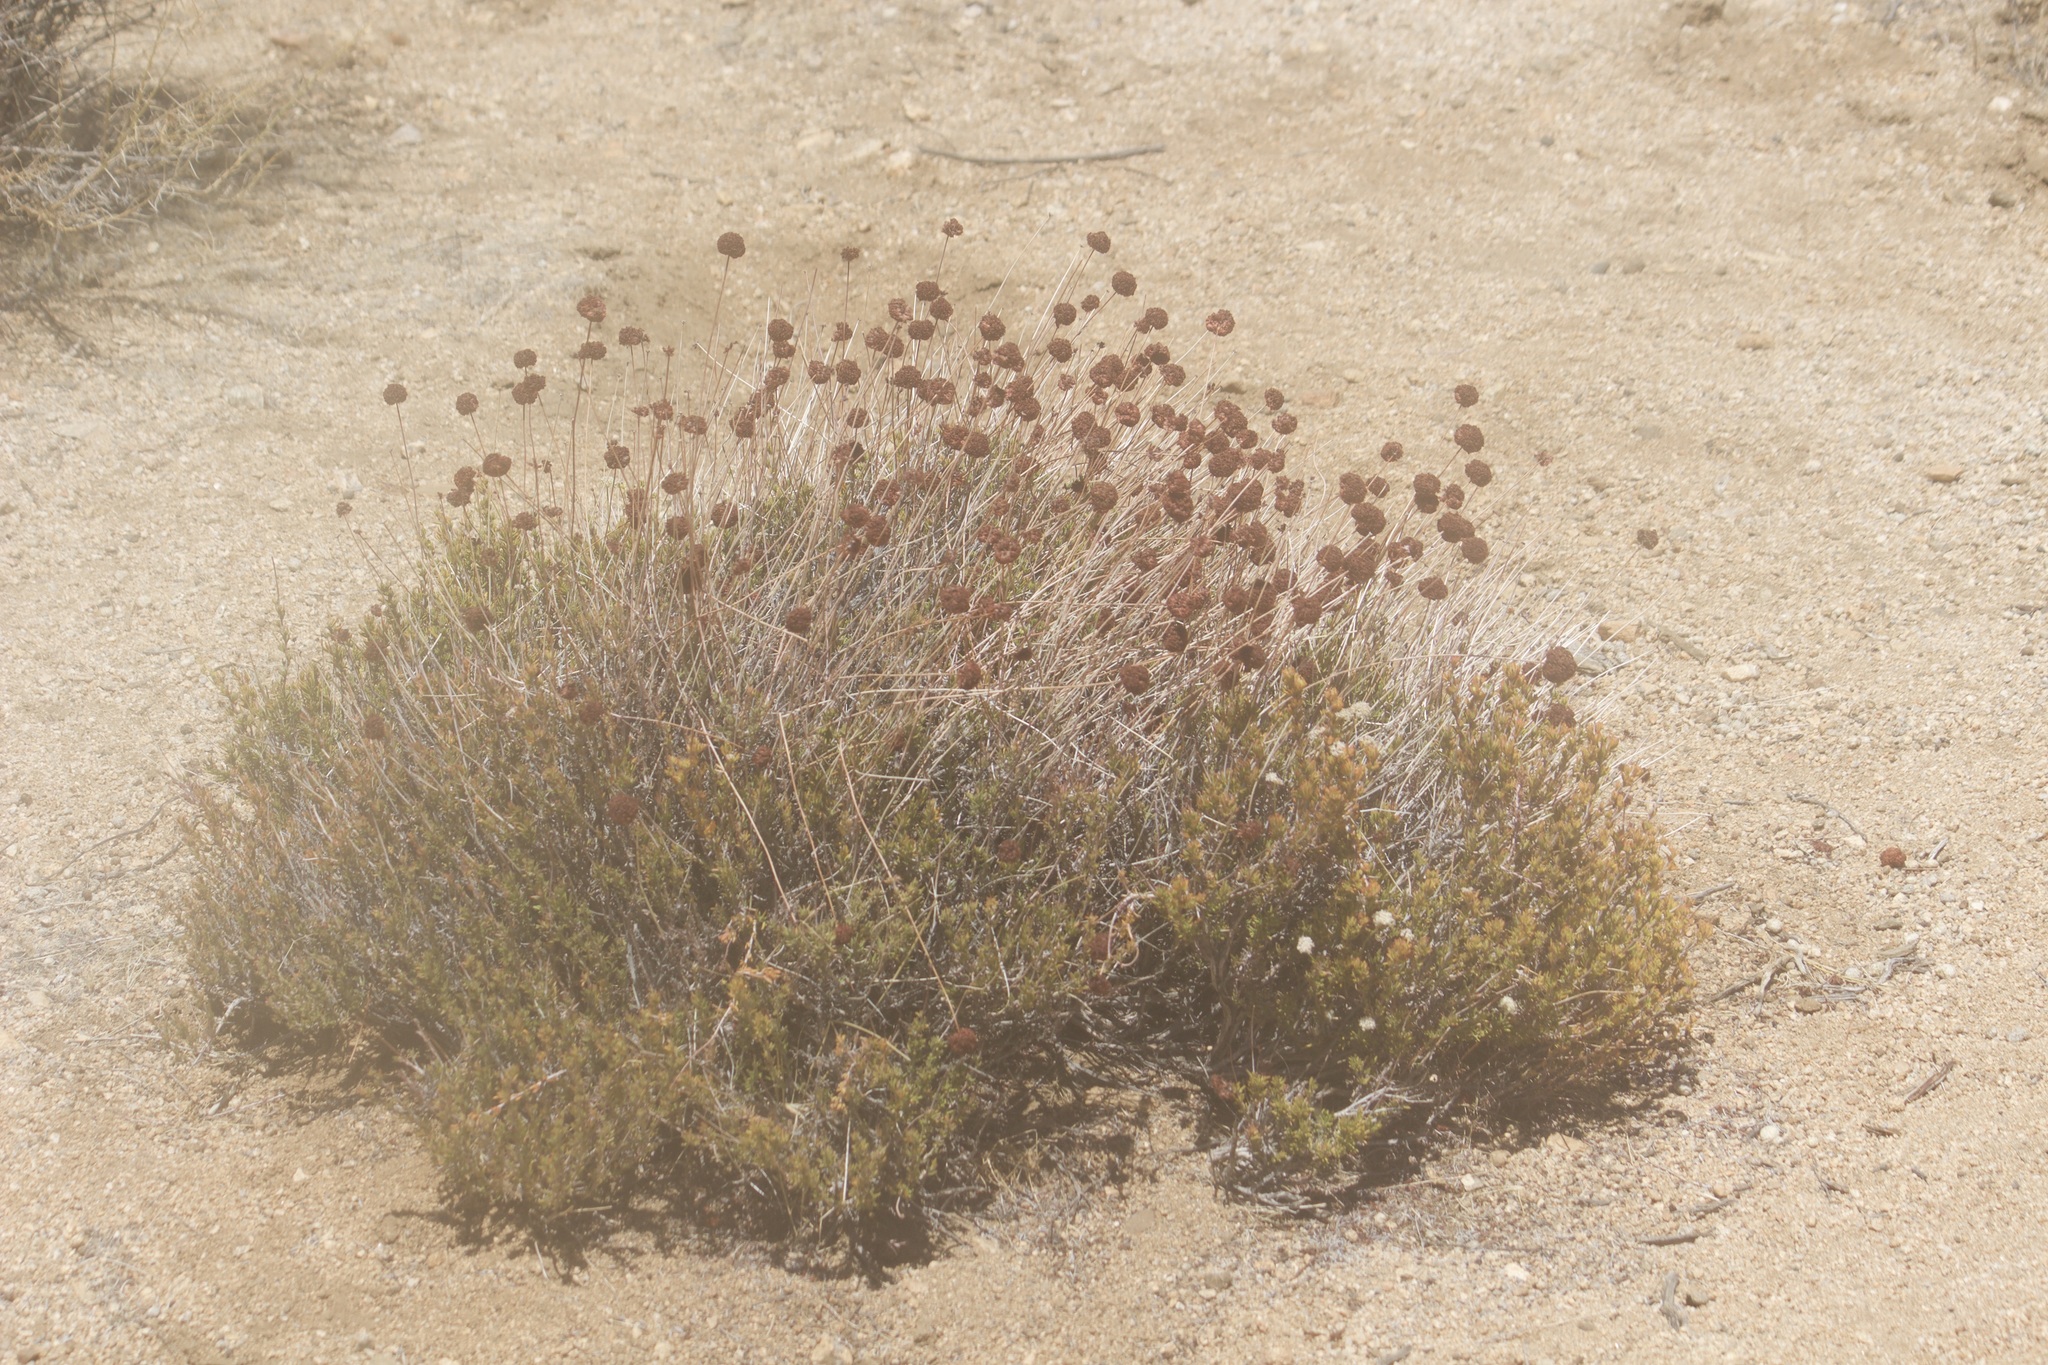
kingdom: Plantae
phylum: Tracheophyta
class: Magnoliopsida
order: Caryophyllales
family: Polygonaceae
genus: Eriogonum
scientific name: Eriogonum fasciculatum
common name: California wild buckwheat
